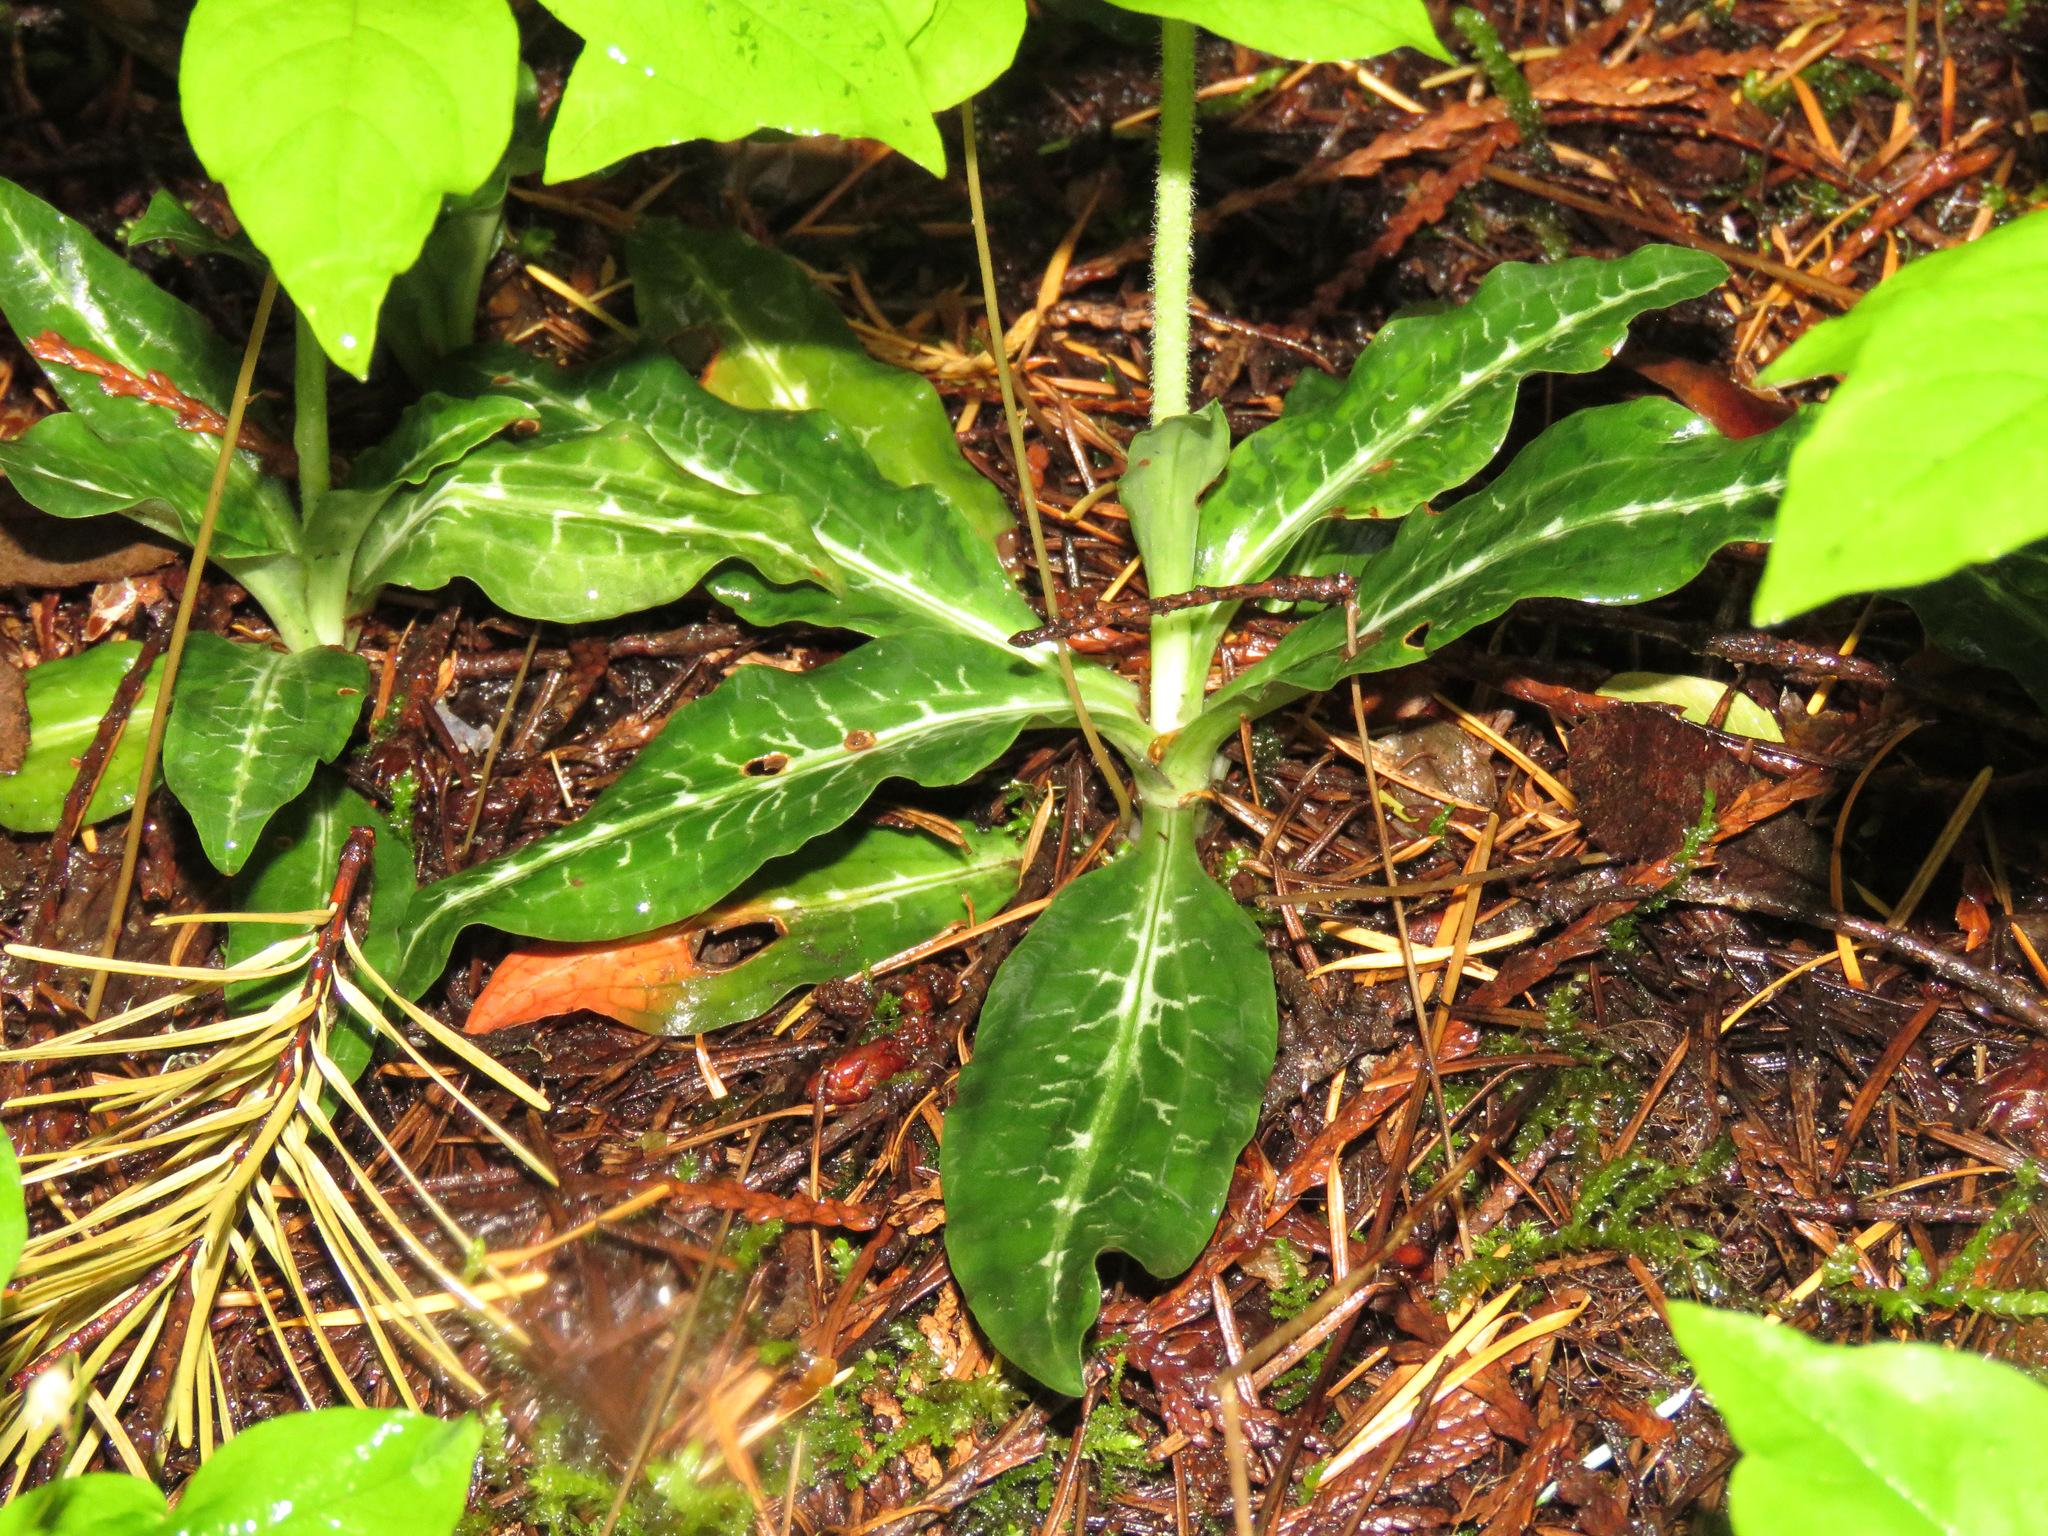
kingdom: Plantae
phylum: Tracheophyta
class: Liliopsida
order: Asparagales
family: Orchidaceae
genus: Goodyera
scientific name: Goodyera oblongifolia
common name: Giant rattlesnake-plantain
